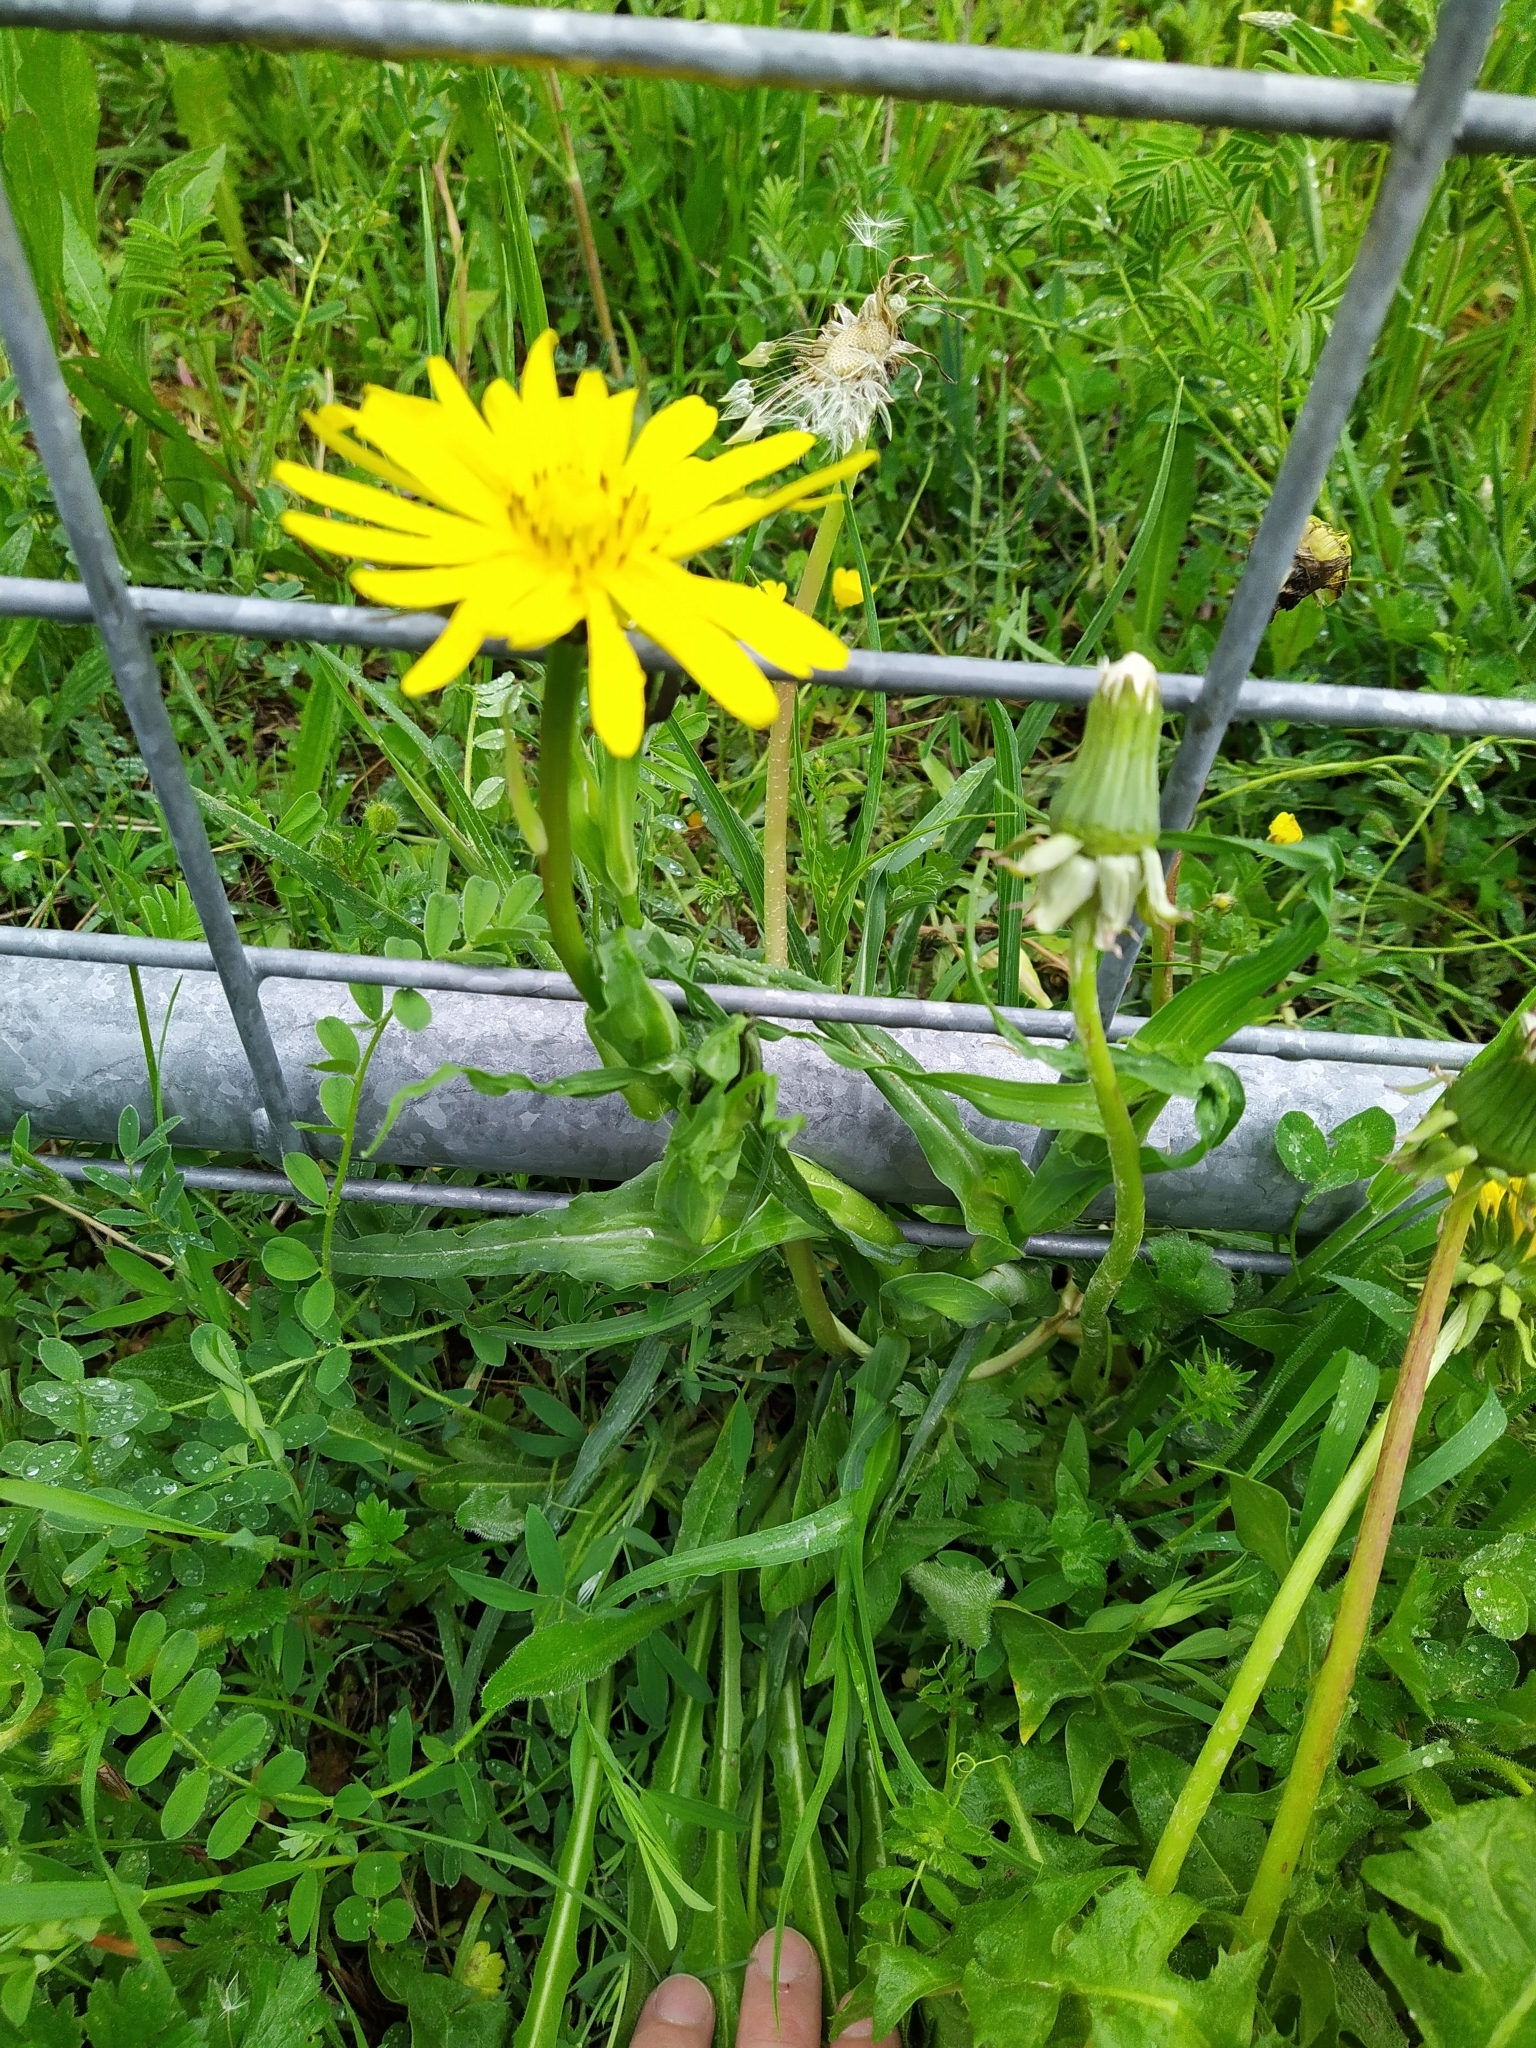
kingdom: Plantae
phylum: Tracheophyta
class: Magnoliopsida
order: Asterales
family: Asteraceae
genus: Tragopogon
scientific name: Tragopogon orientalis
